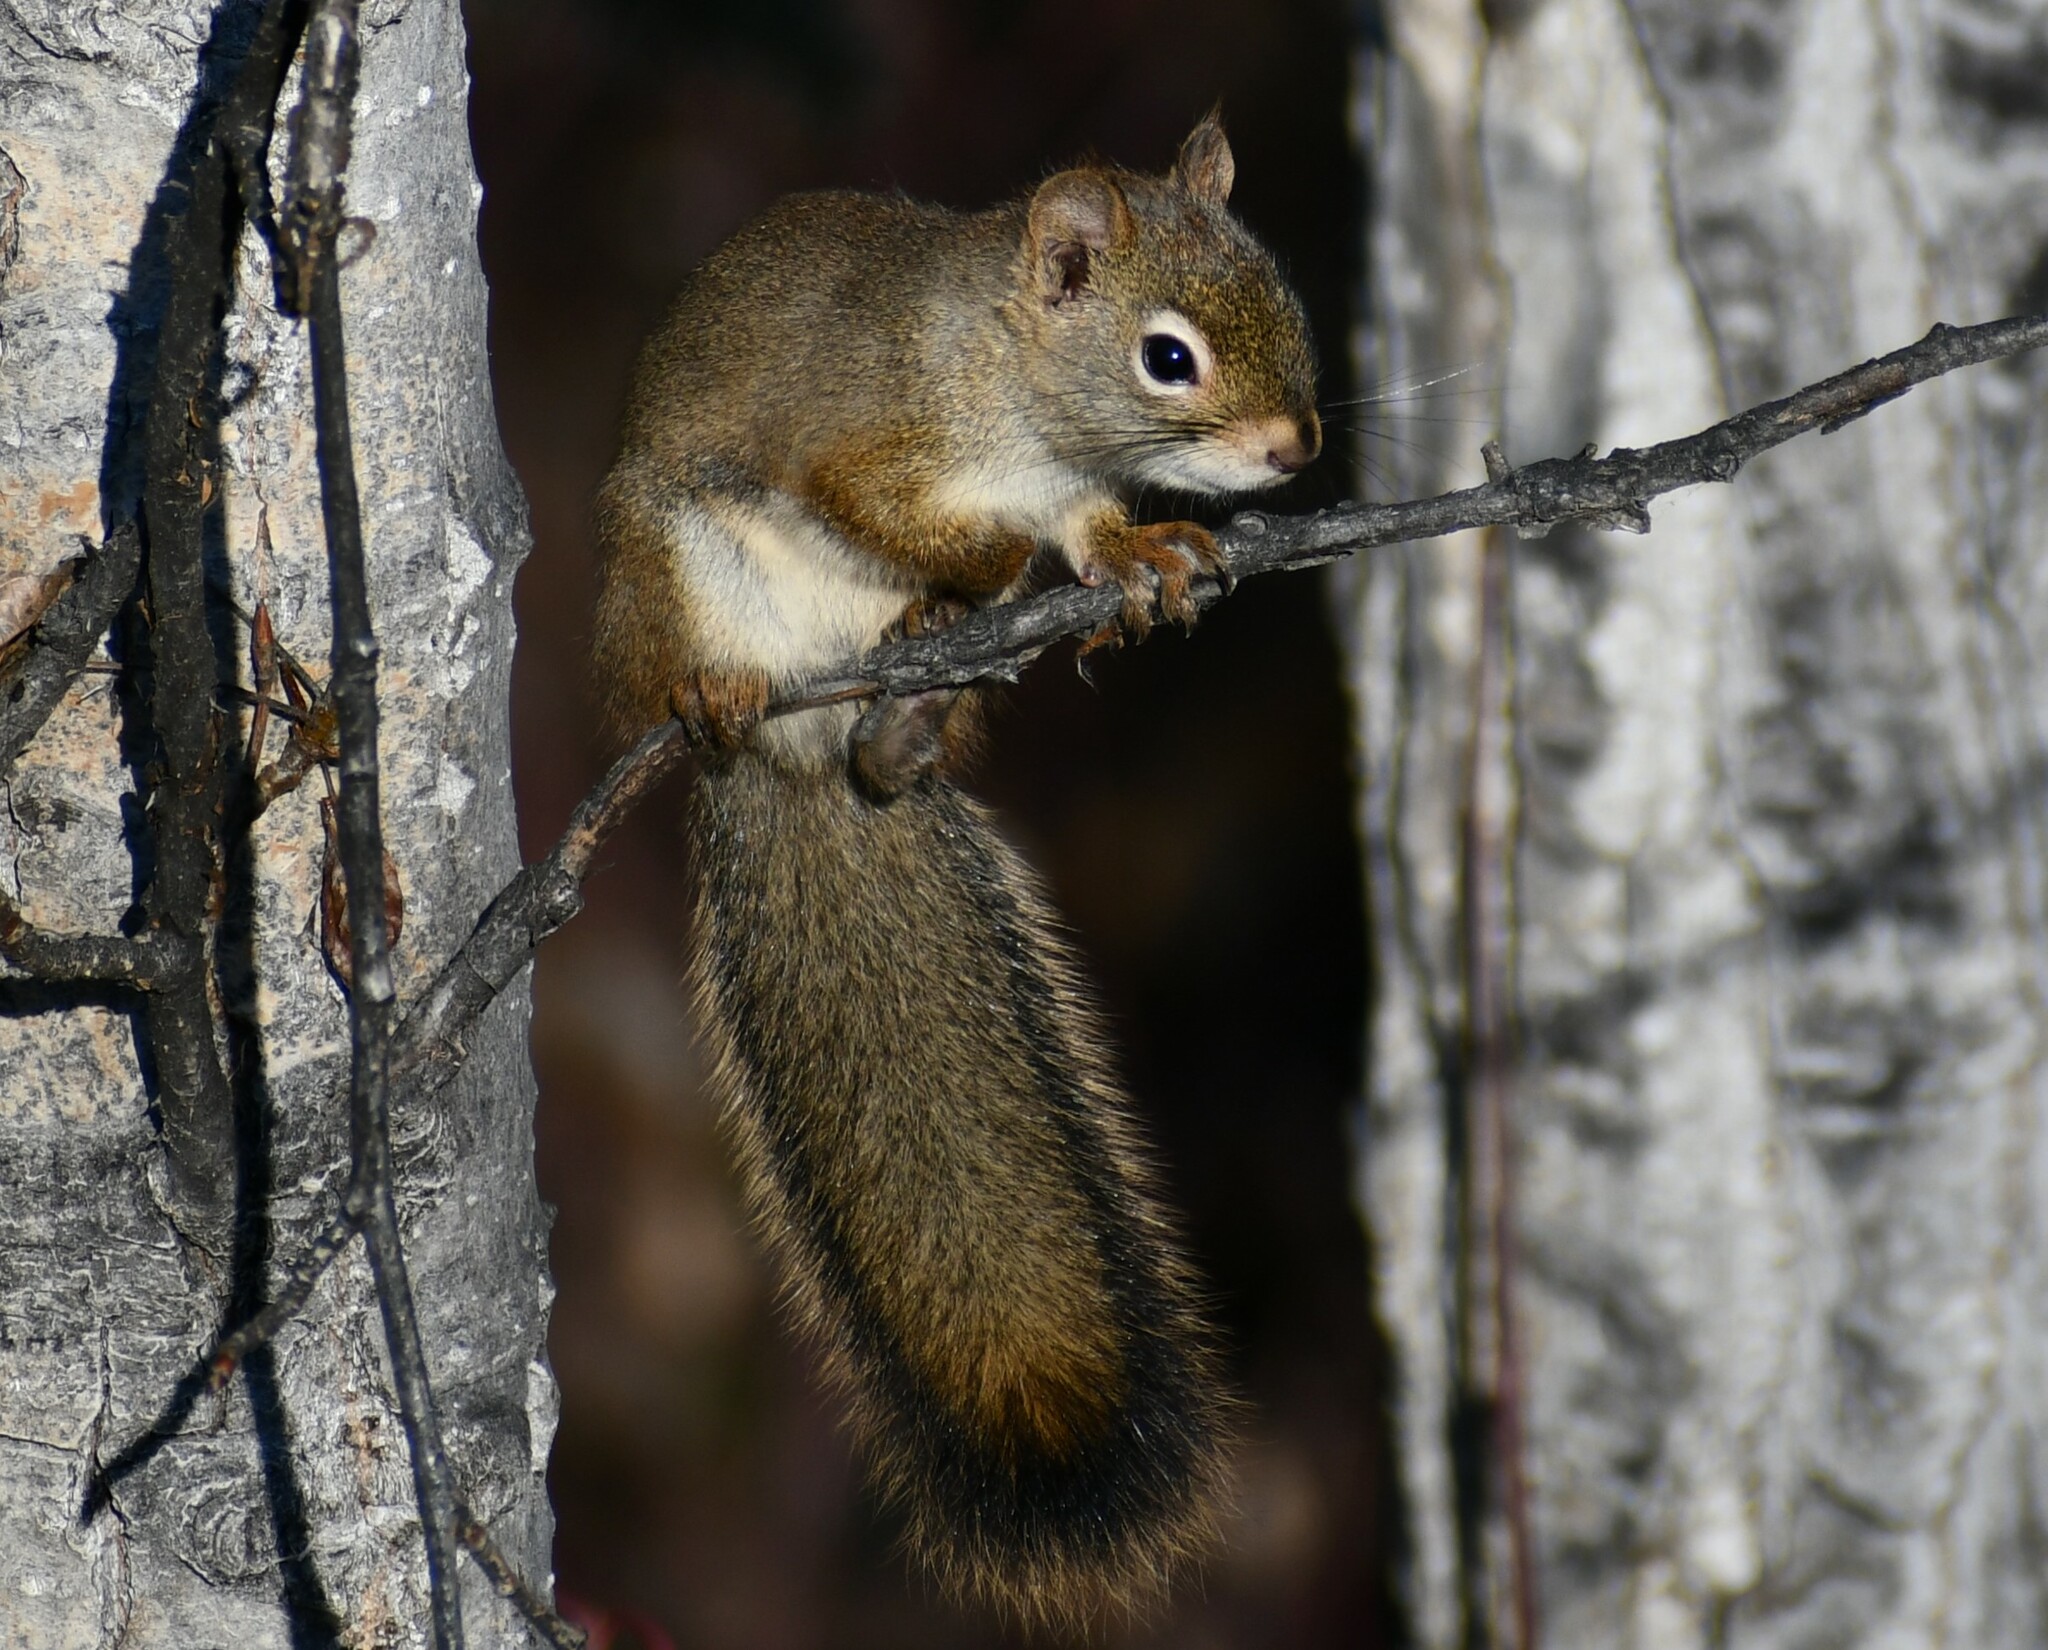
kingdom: Animalia
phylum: Chordata
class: Mammalia
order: Rodentia
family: Sciuridae
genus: Tamiasciurus
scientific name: Tamiasciurus hudsonicus
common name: Red squirrel
